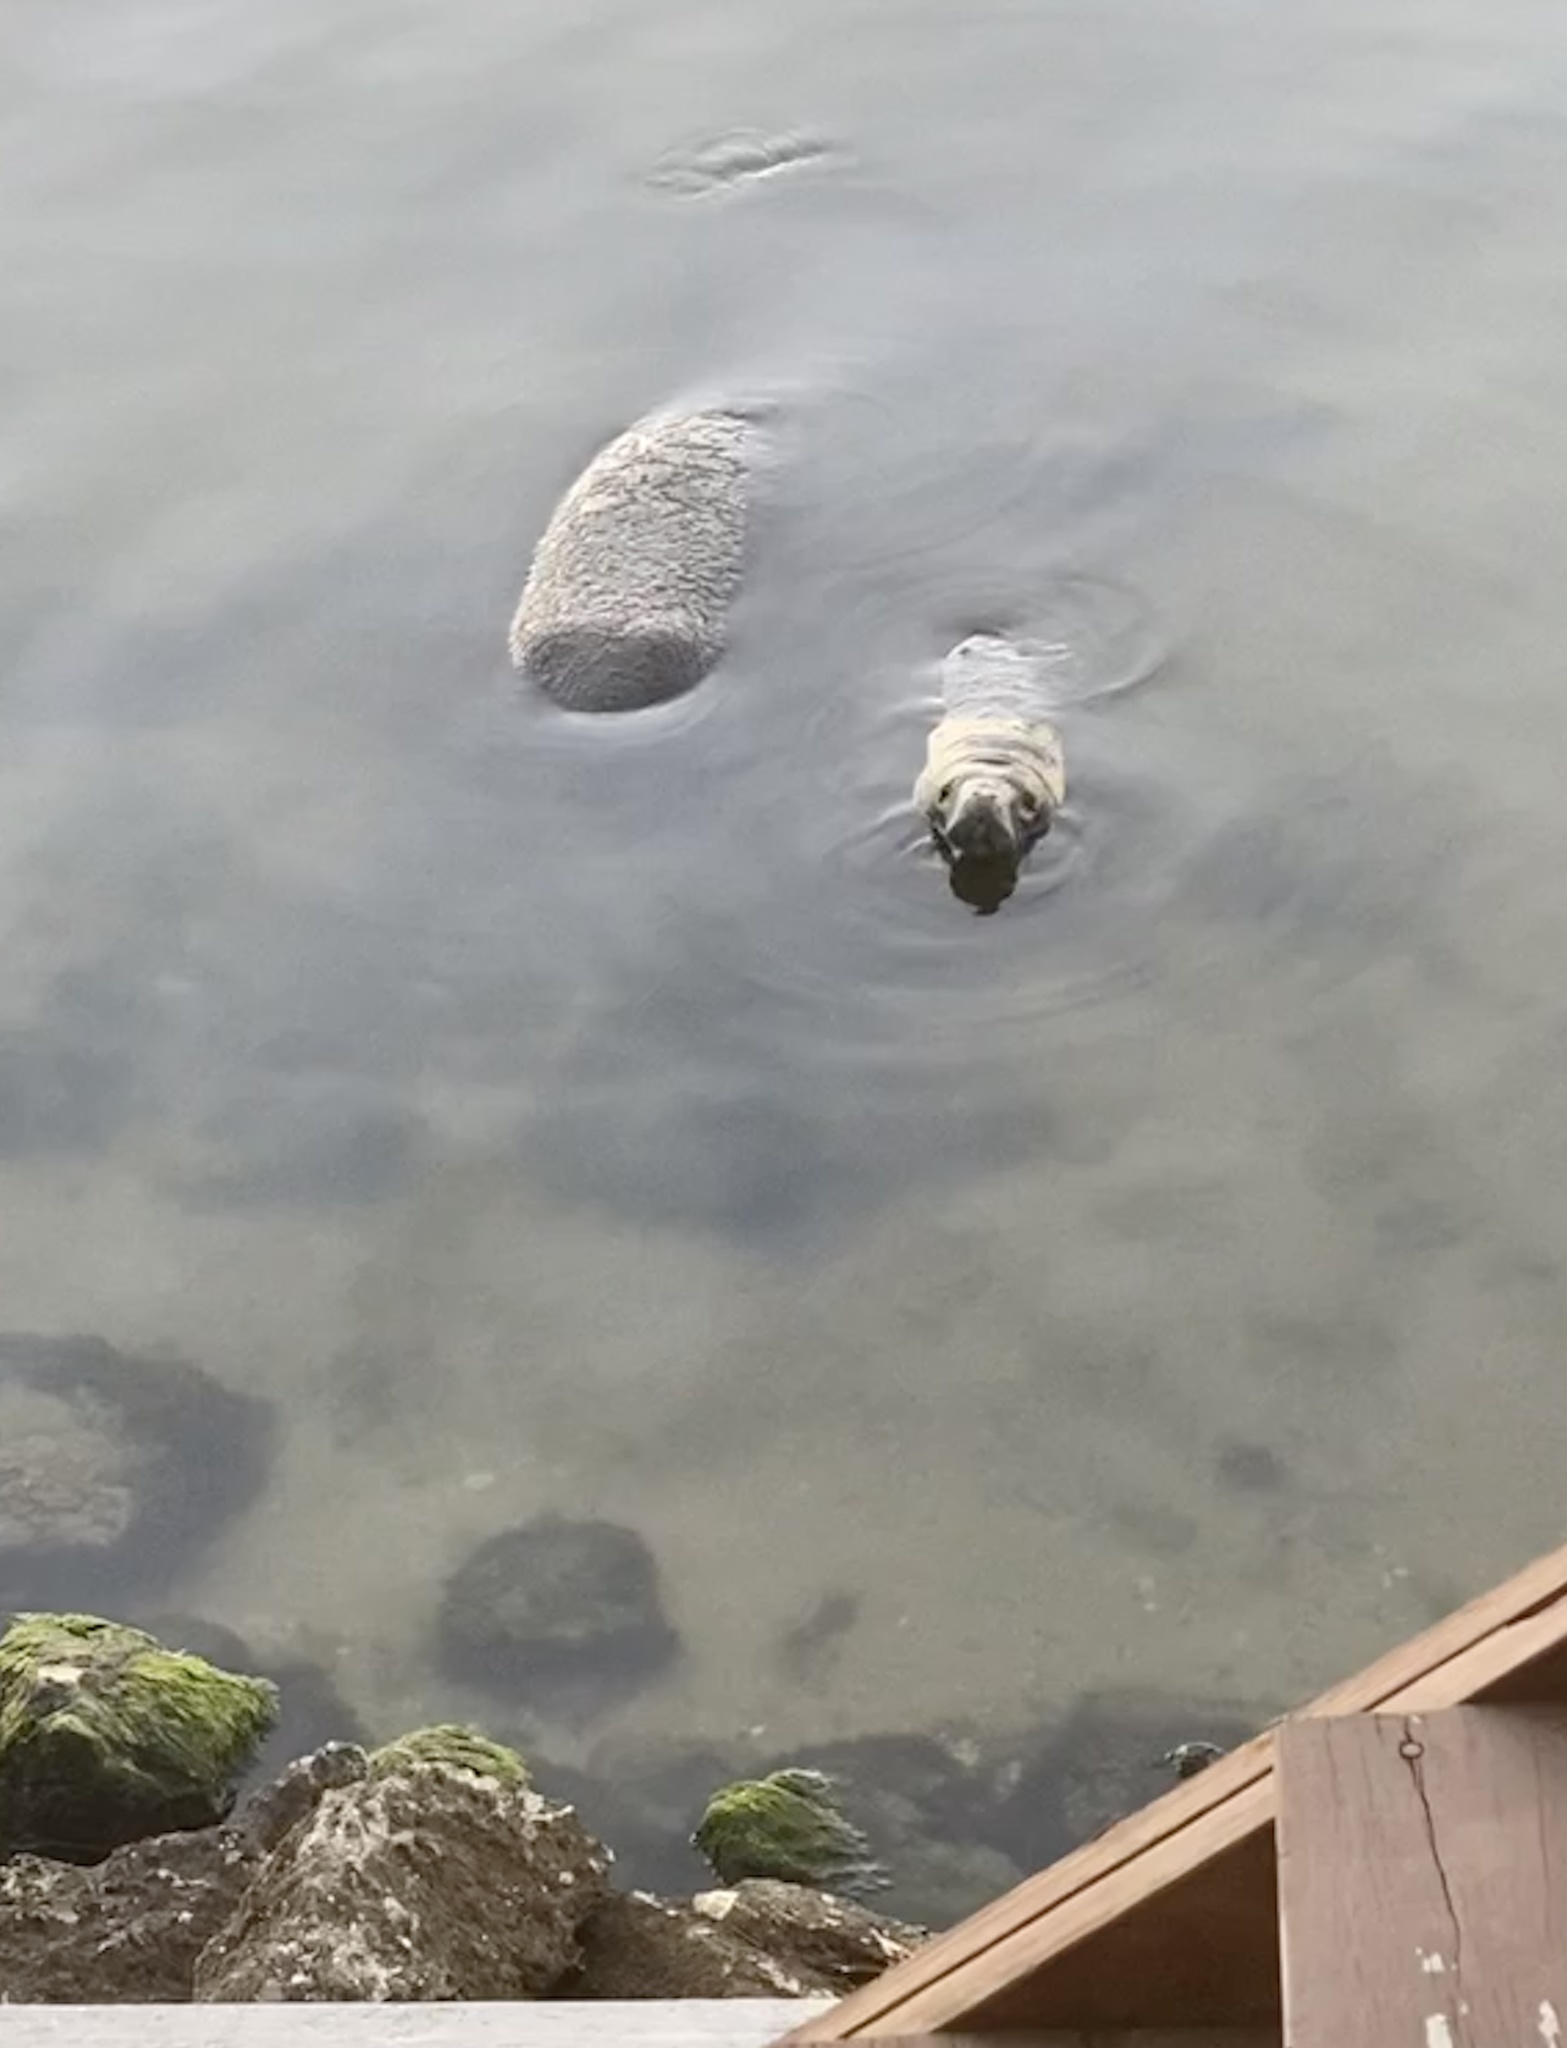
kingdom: Animalia
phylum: Chordata
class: Mammalia
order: Sirenia
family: Trichechidae
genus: Trichechus
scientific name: Trichechus manatus
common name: West indian manatee
